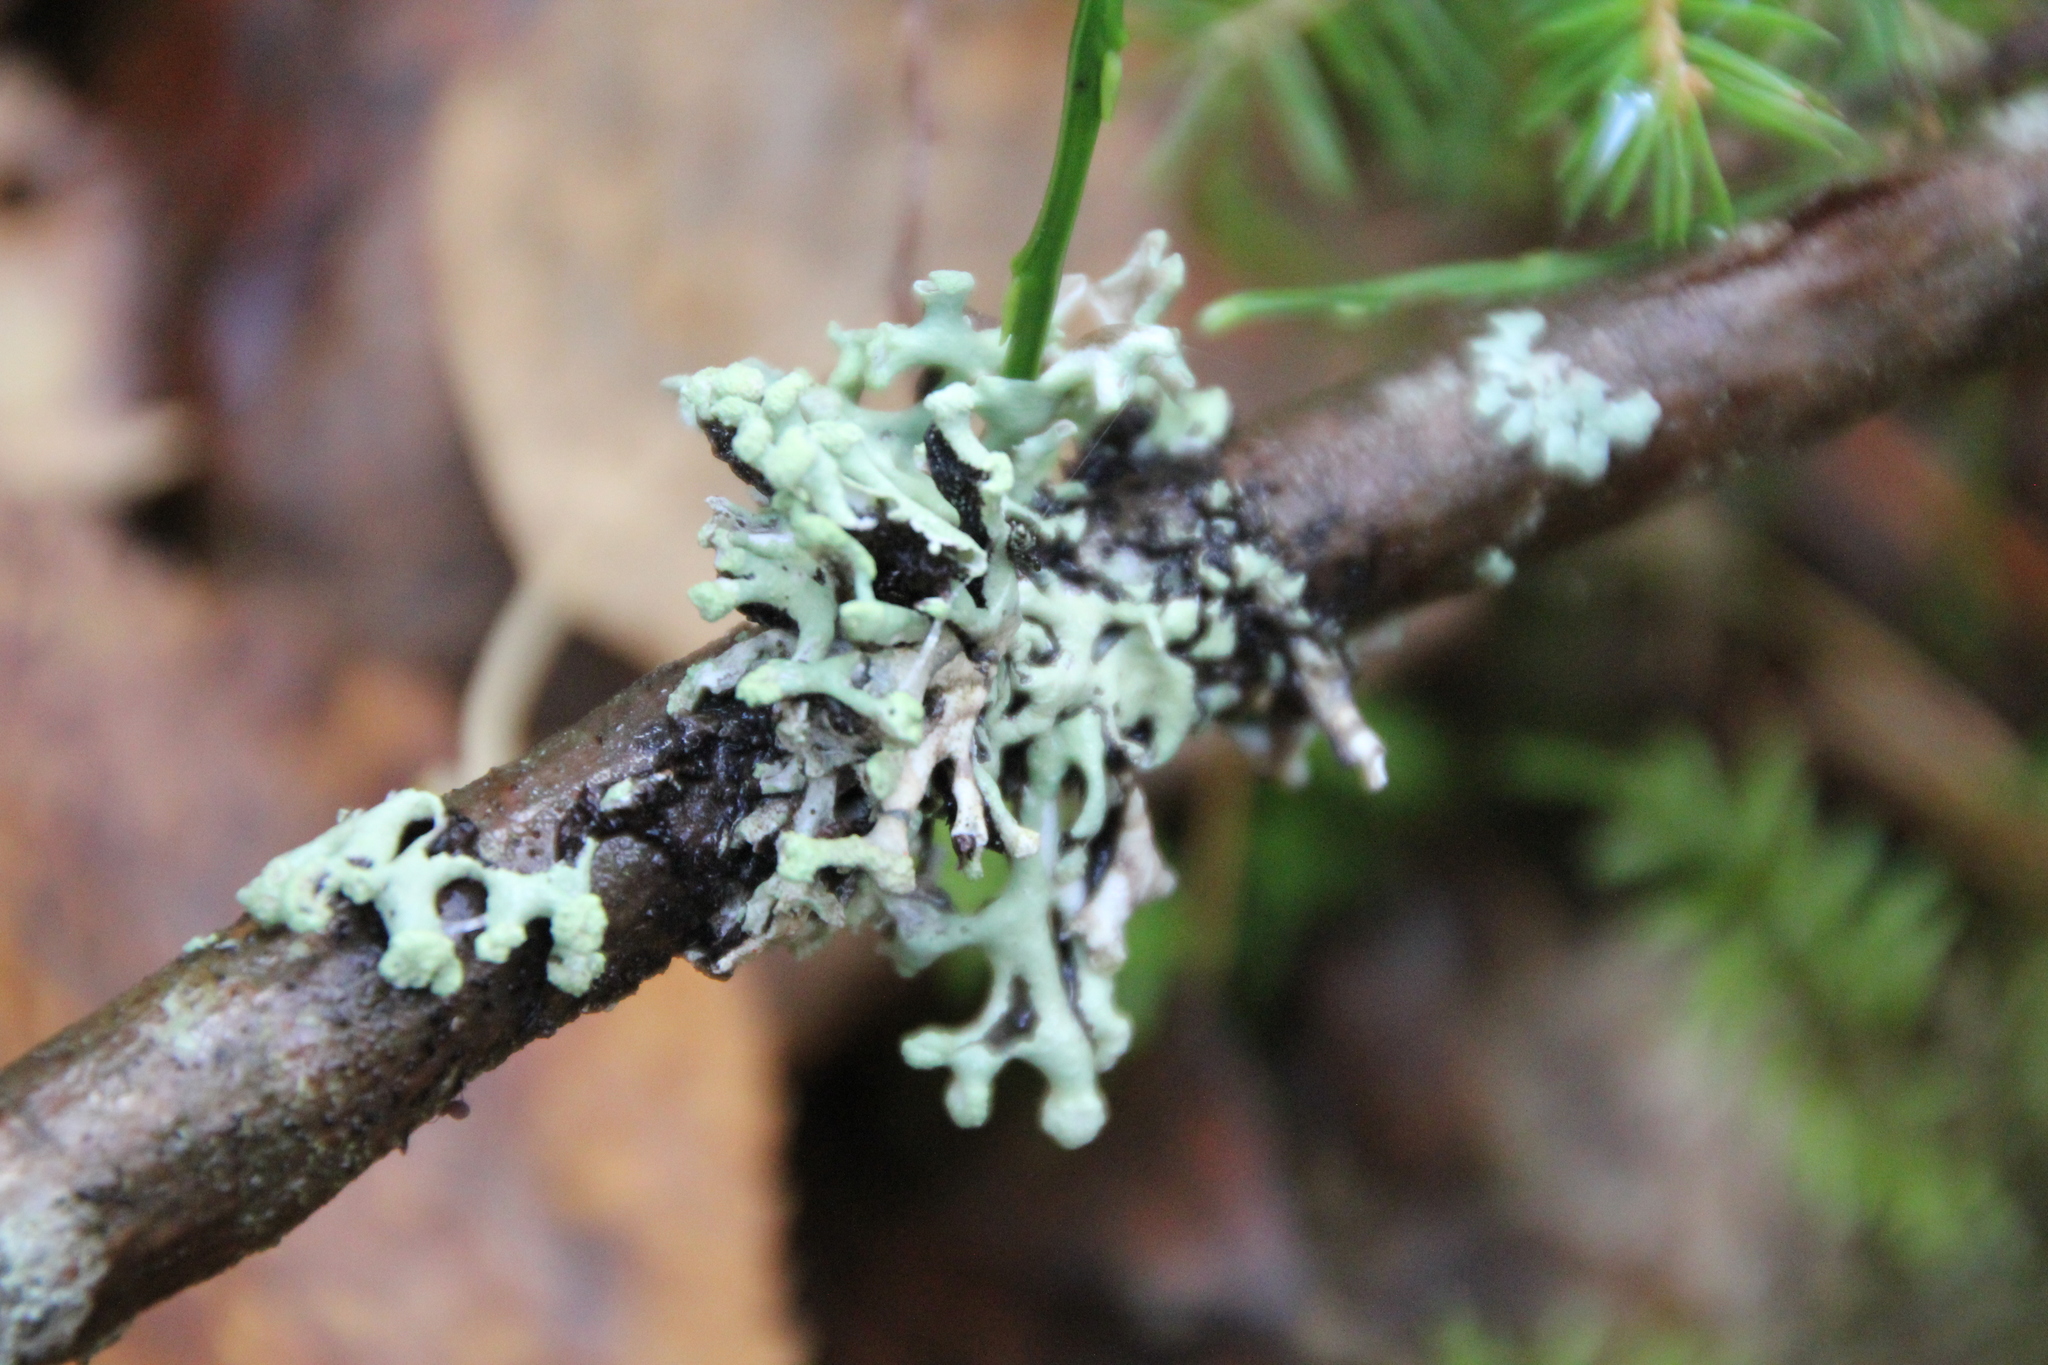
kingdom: Fungi
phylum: Ascomycota
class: Lecanoromycetes
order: Lecanorales
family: Parmeliaceae
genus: Hypogymnia
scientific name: Hypogymnia tubulosa
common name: Powder-headed tube lichen
